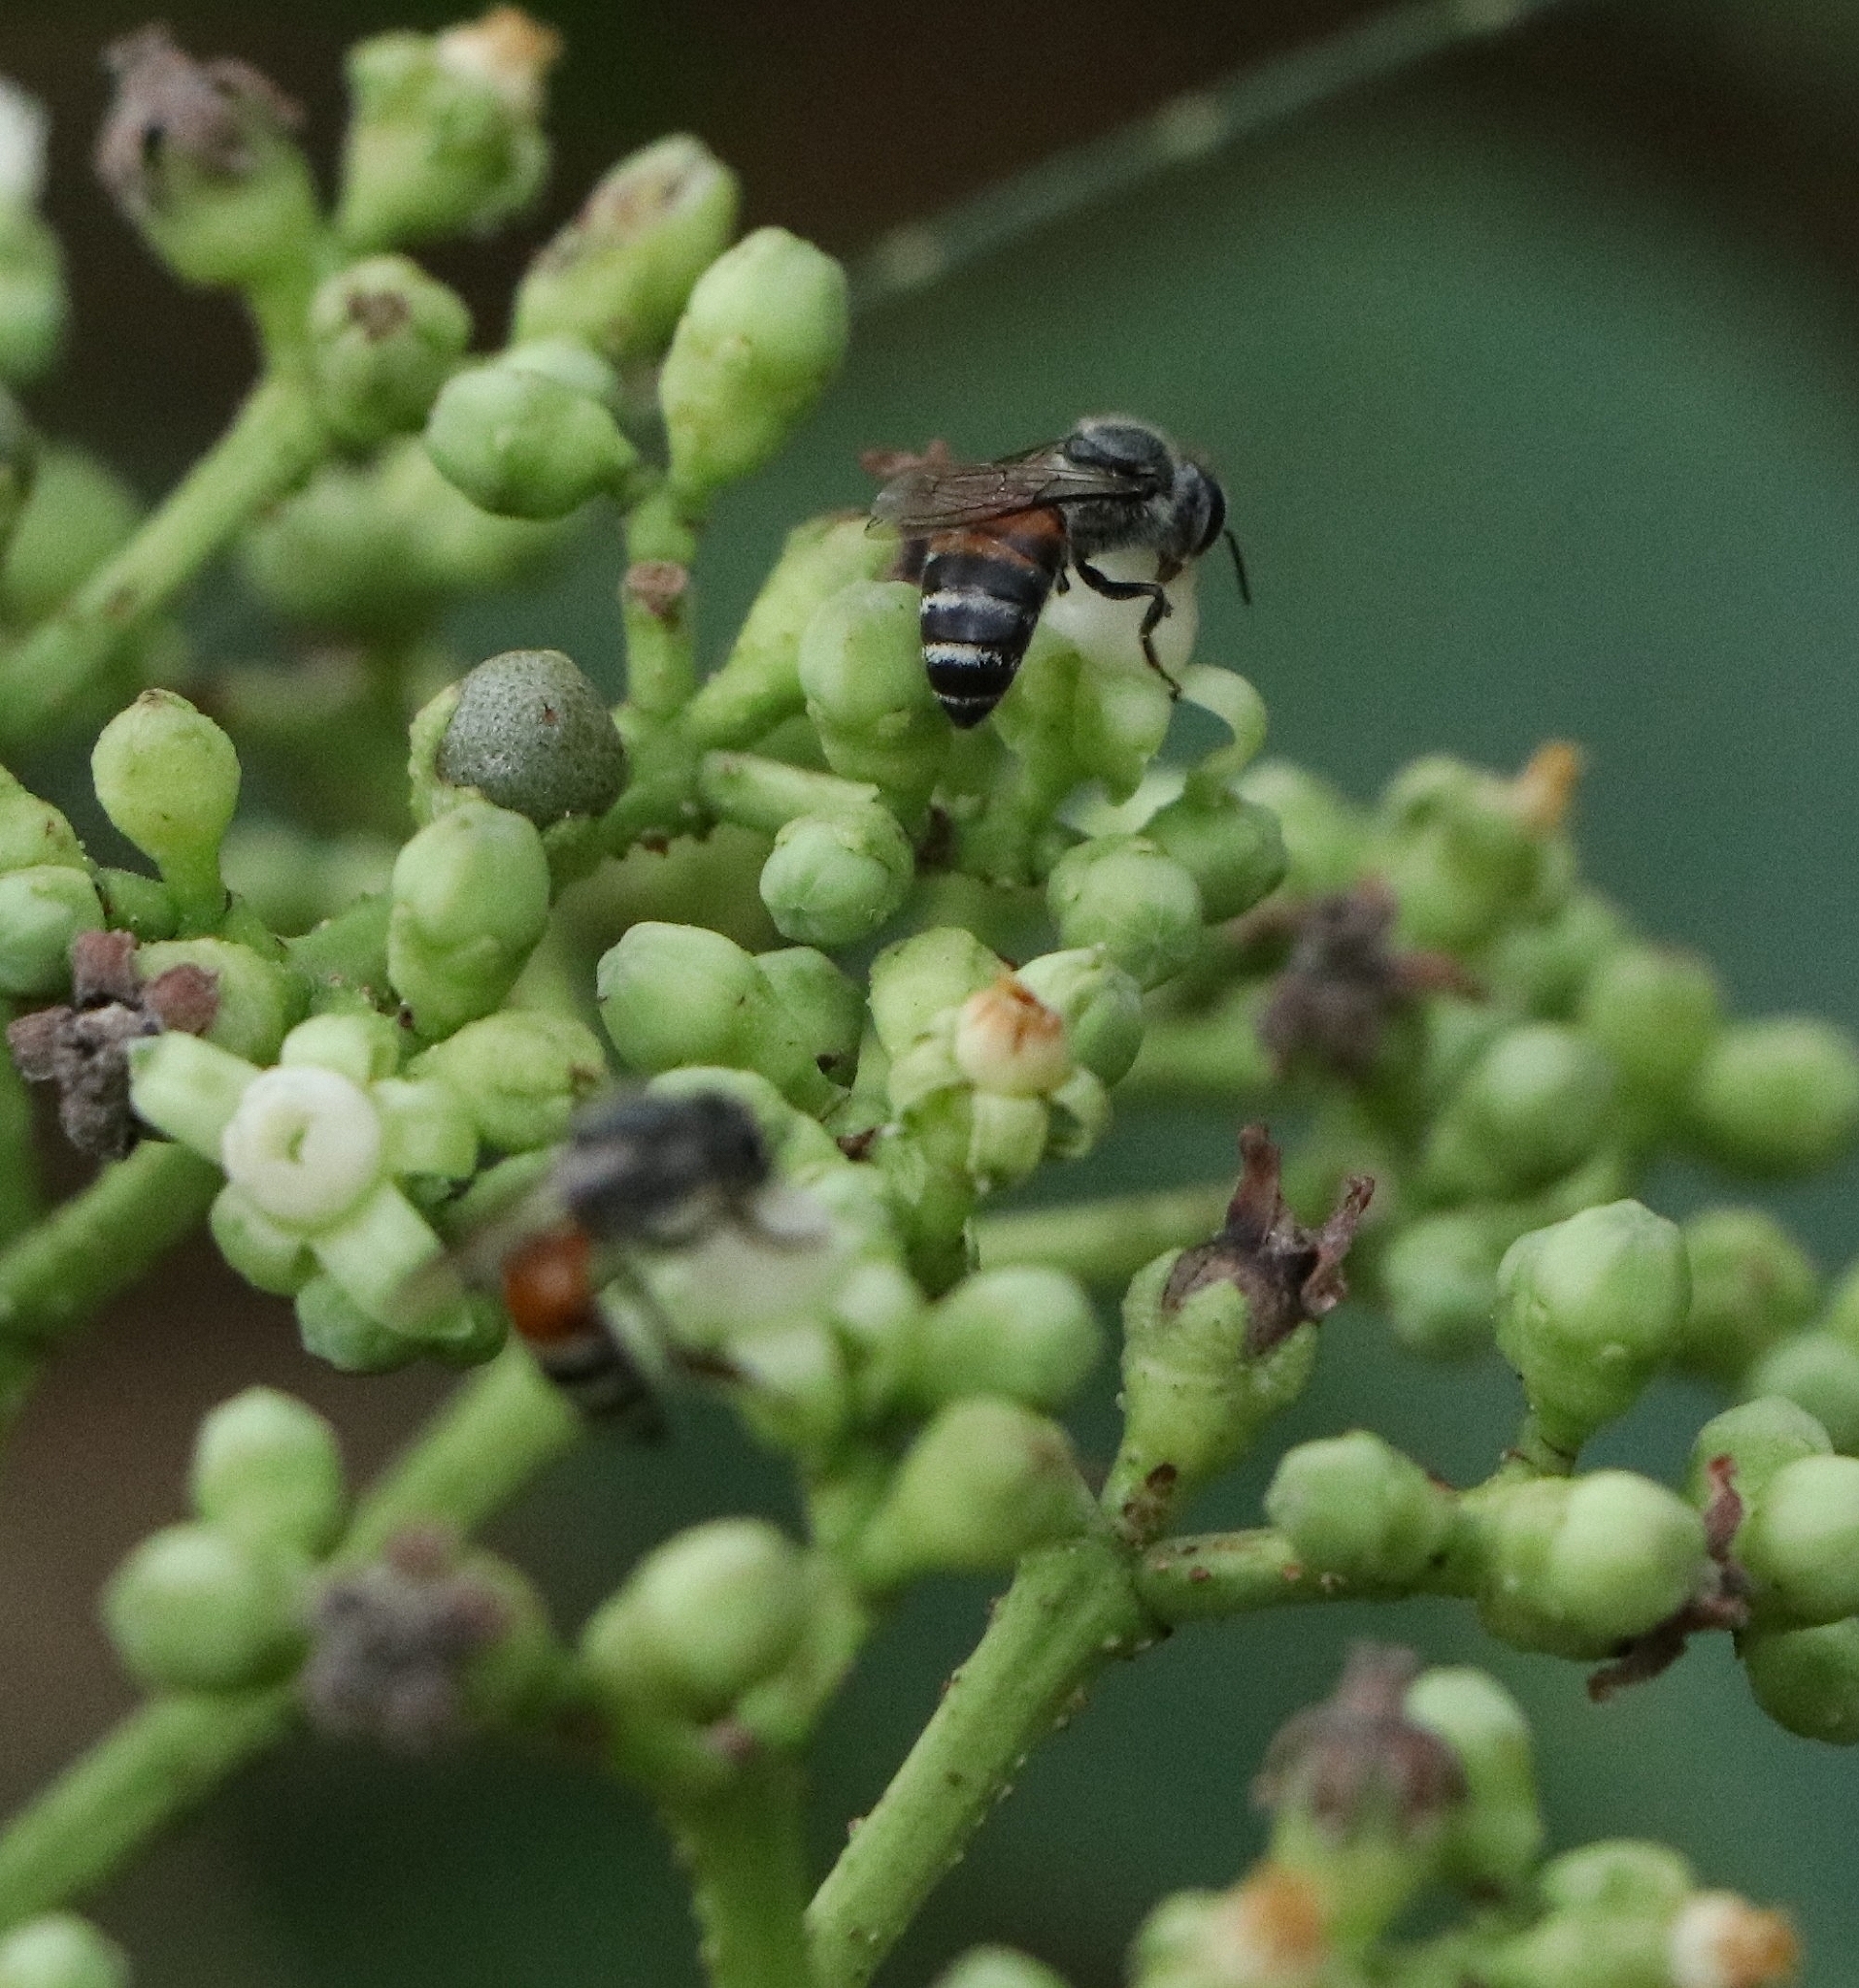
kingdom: Animalia
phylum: Arthropoda
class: Insecta
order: Hymenoptera
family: Apidae
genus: Apis
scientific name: Apis florea
